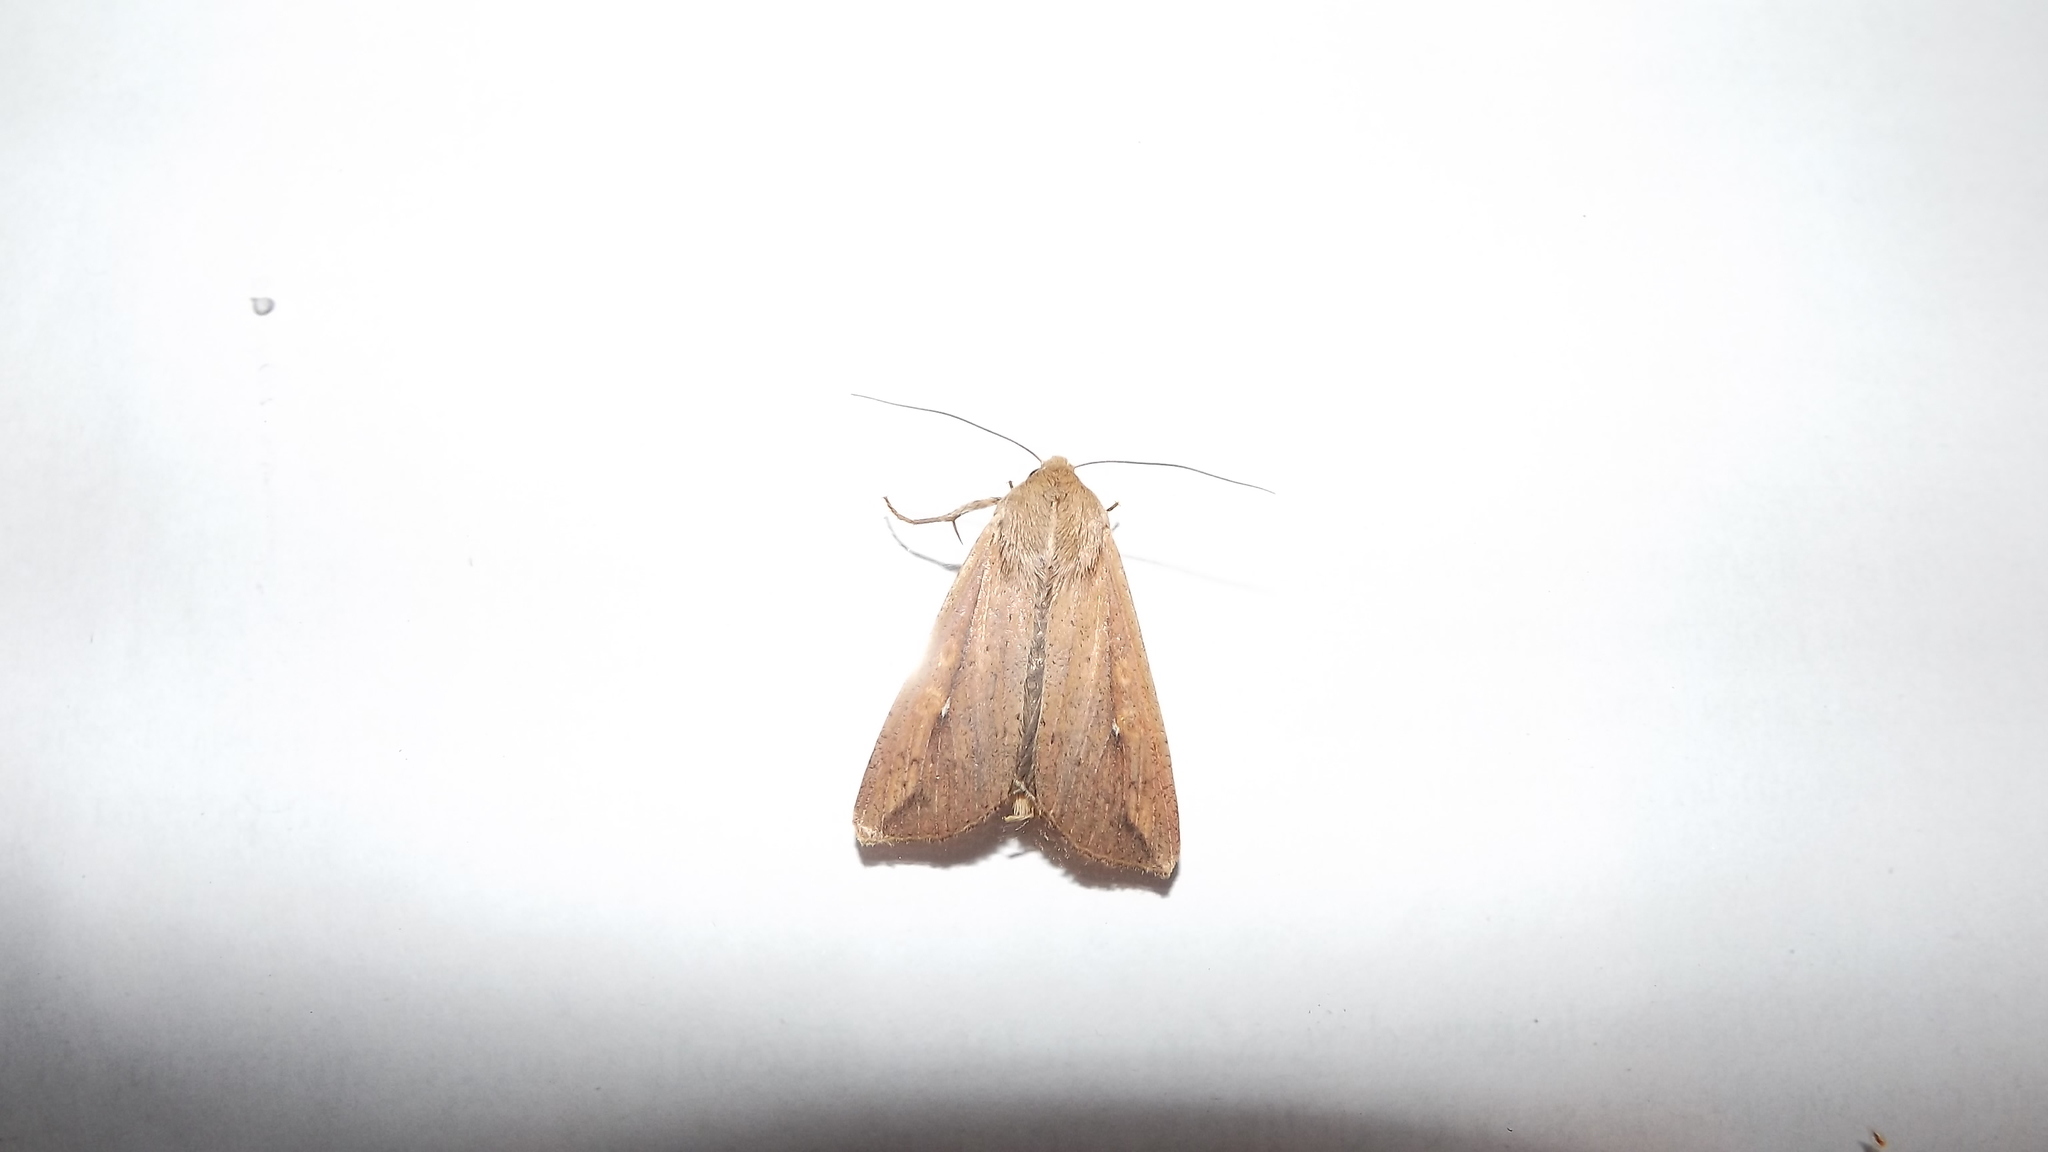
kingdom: Animalia
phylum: Arthropoda
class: Insecta
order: Lepidoptera
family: Noctuidae
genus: Mythimna
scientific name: Mythimna unipuncta
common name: White-speck
